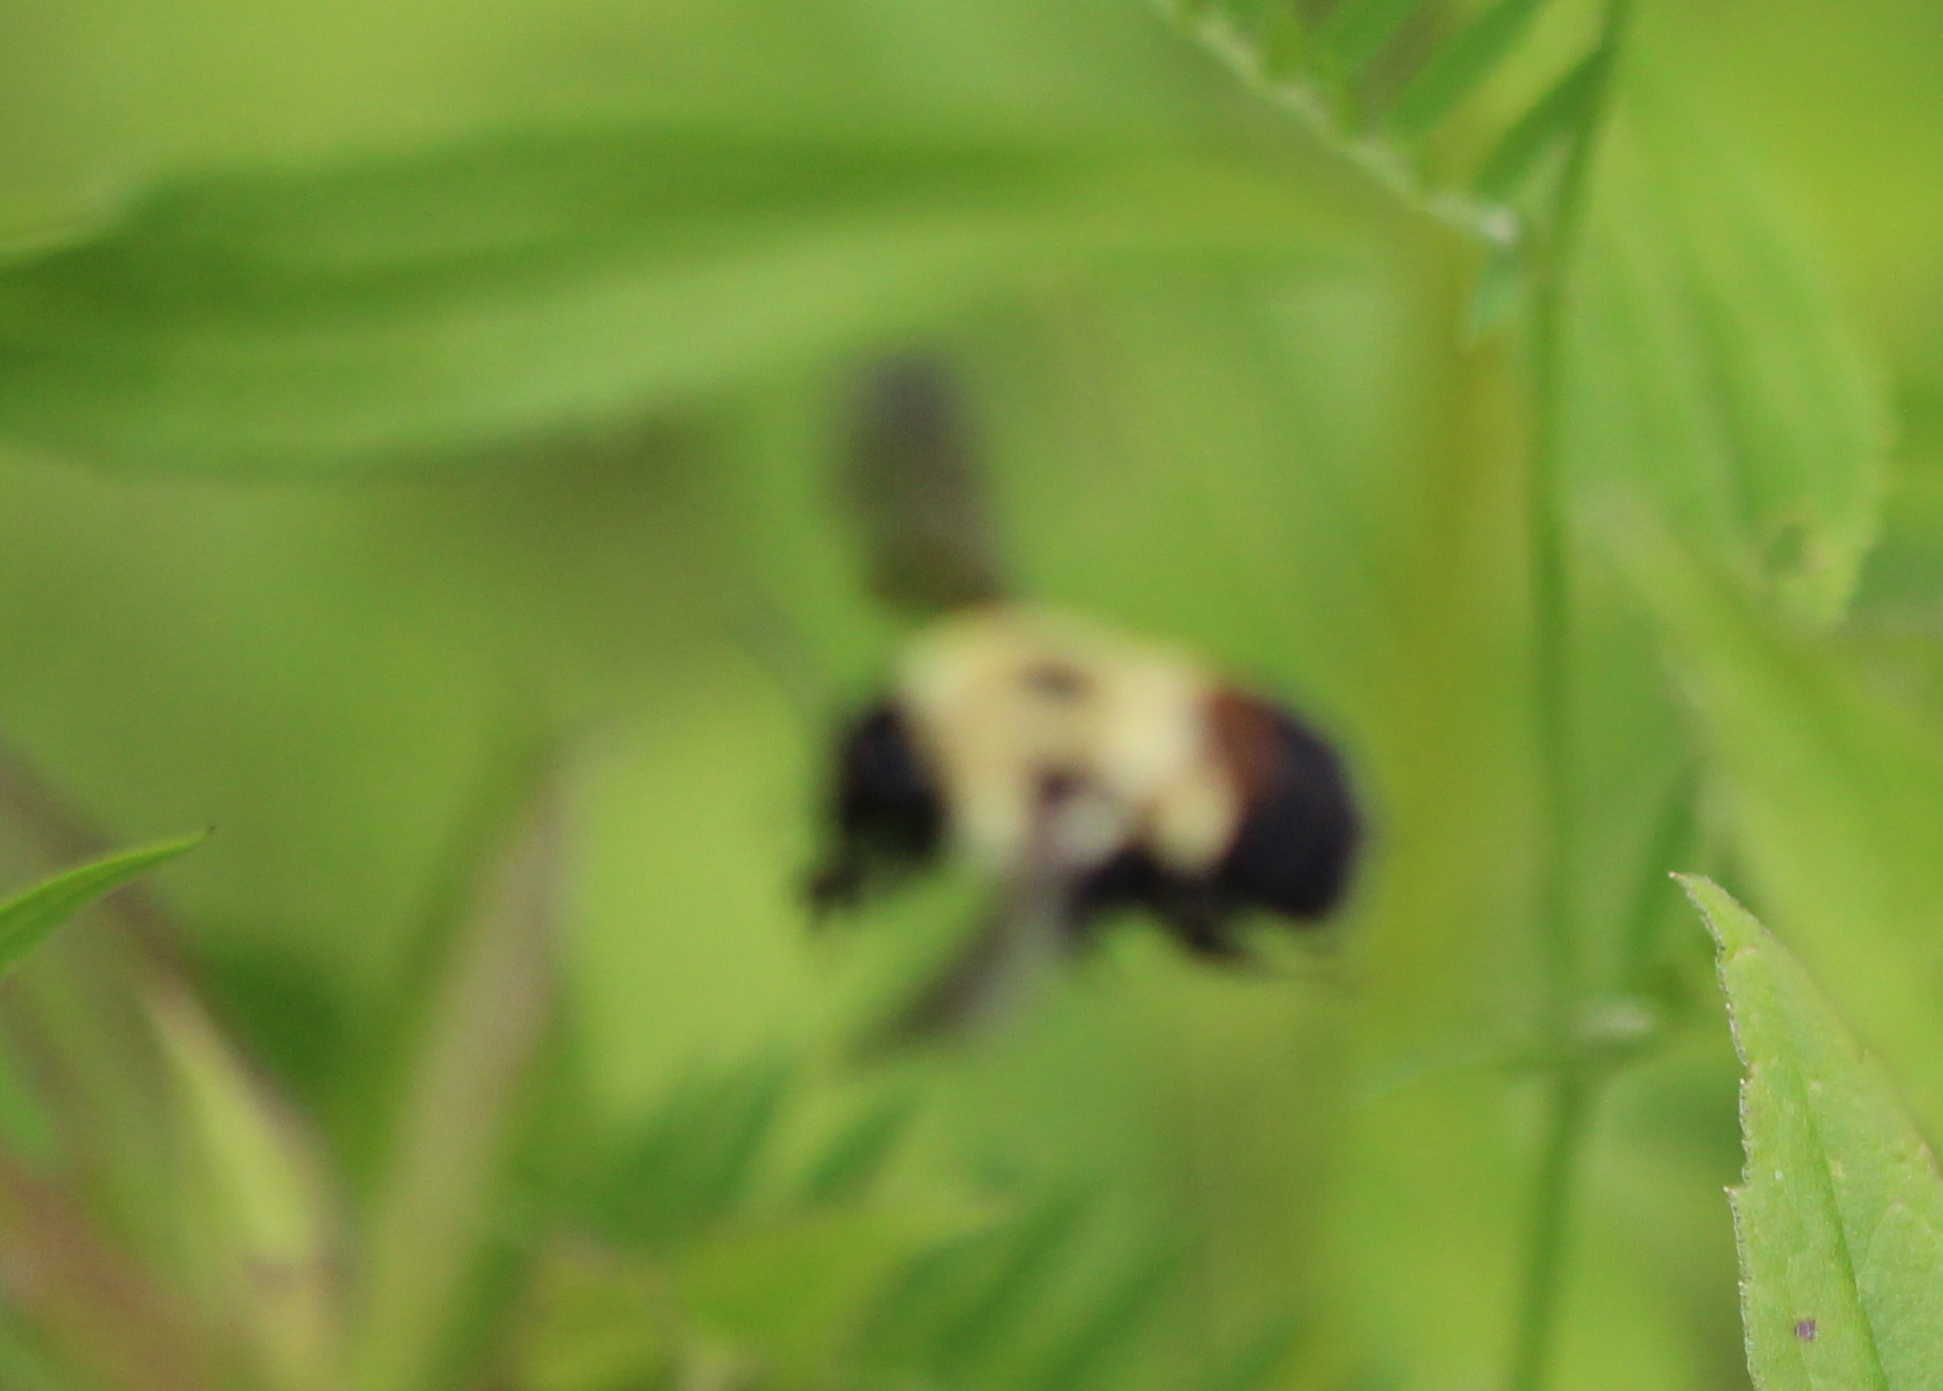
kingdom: Animalia
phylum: Arthropoda
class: Insecta
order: Hymenoptera
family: Apidae
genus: Bombus
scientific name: Bombus griseocollis
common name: Brown-belted bumble bee
